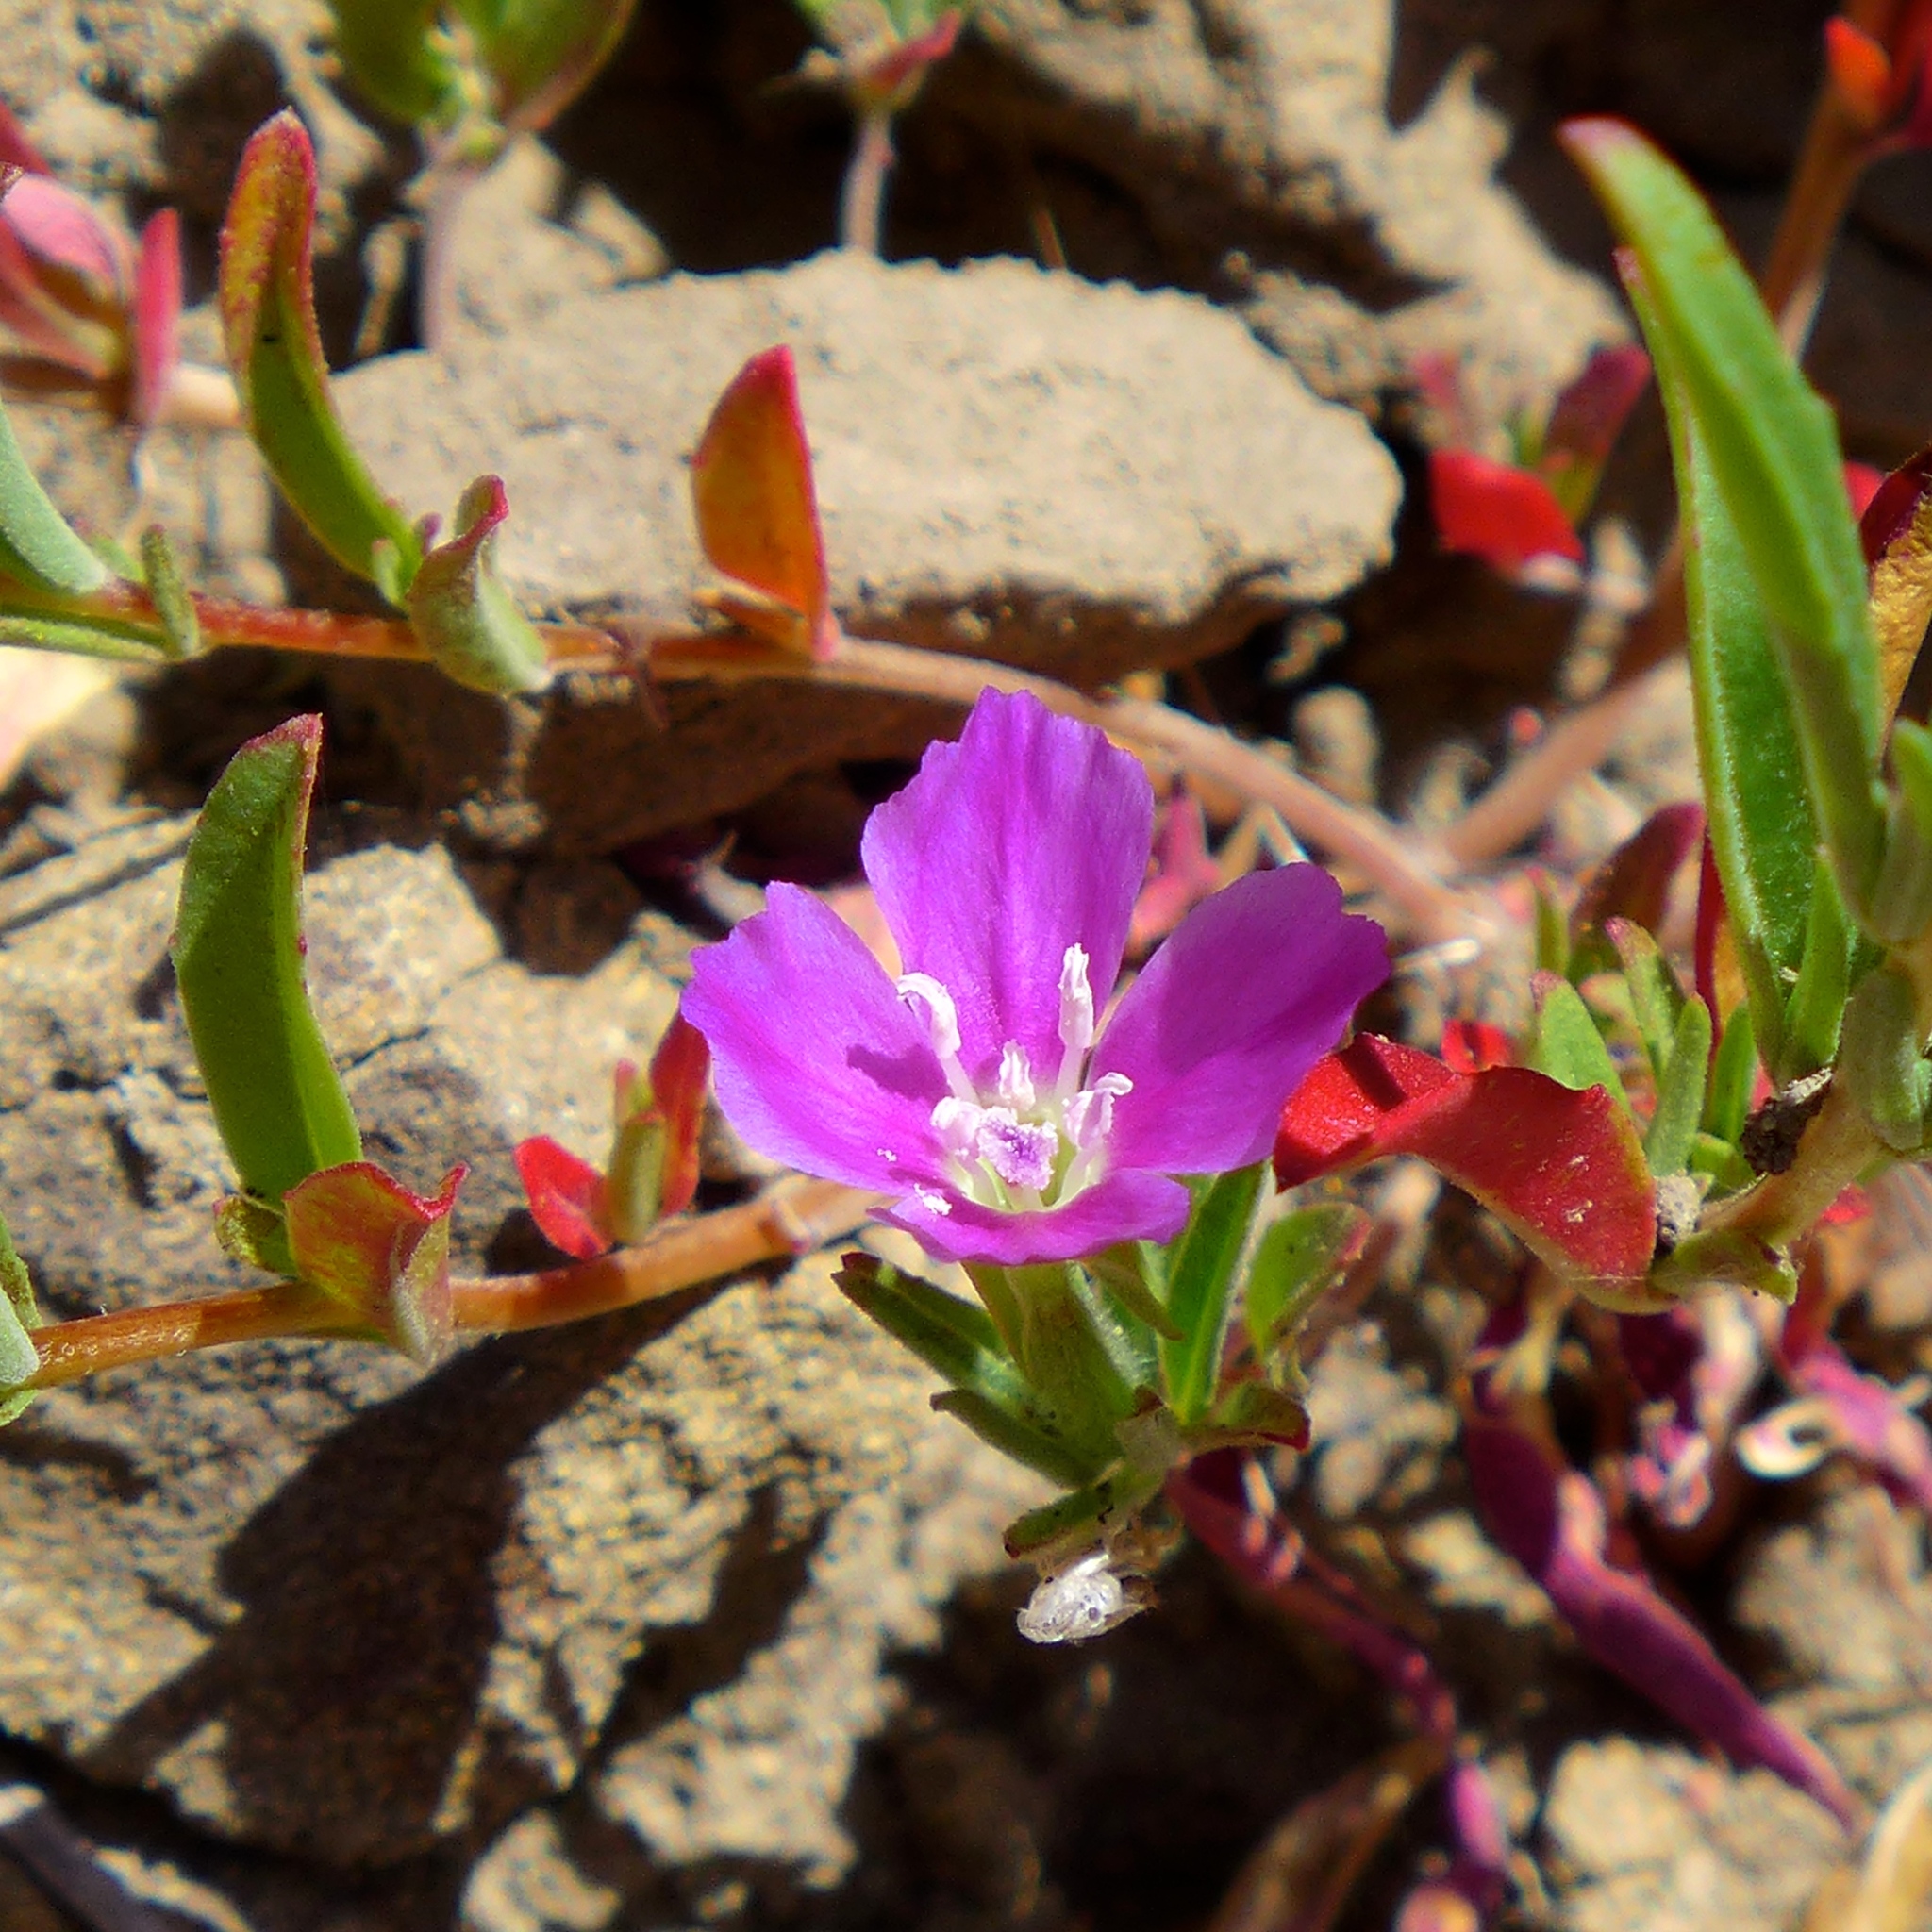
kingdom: Plantae
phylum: Tracheophyta
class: Magnoliopsida
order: Myrtales
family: Onagraceae
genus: Clarkia
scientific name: Clarkia gracilis
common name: Graceful clarkia
